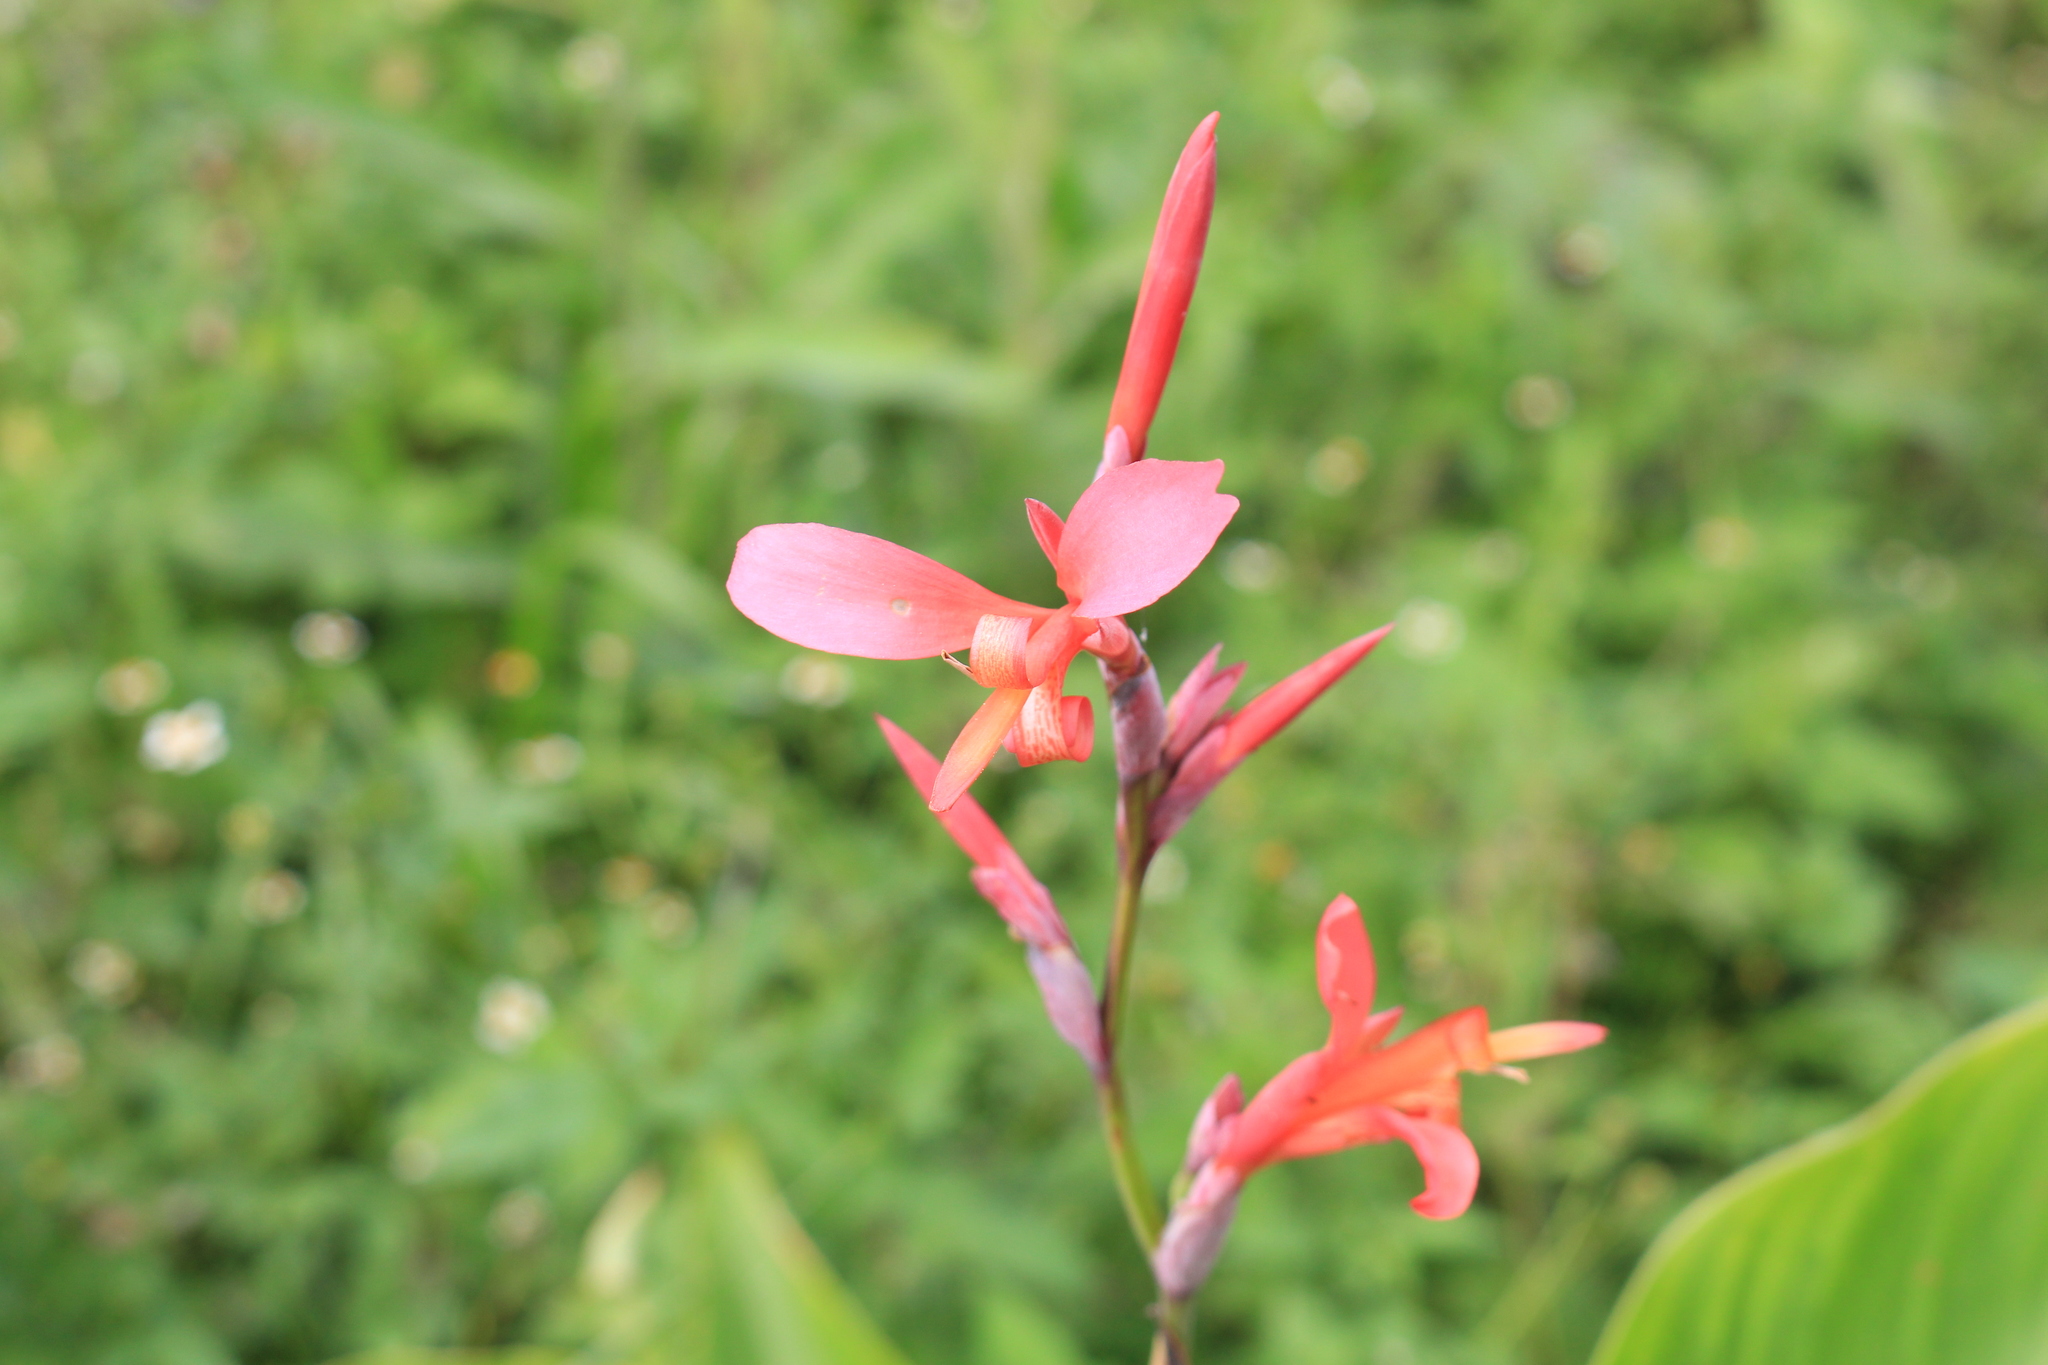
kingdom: Plantae
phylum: Tracheophyta
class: Liliopsida
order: Zingiberales
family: Cannaceae
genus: Canna
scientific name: Canna indica
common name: Indian shot
